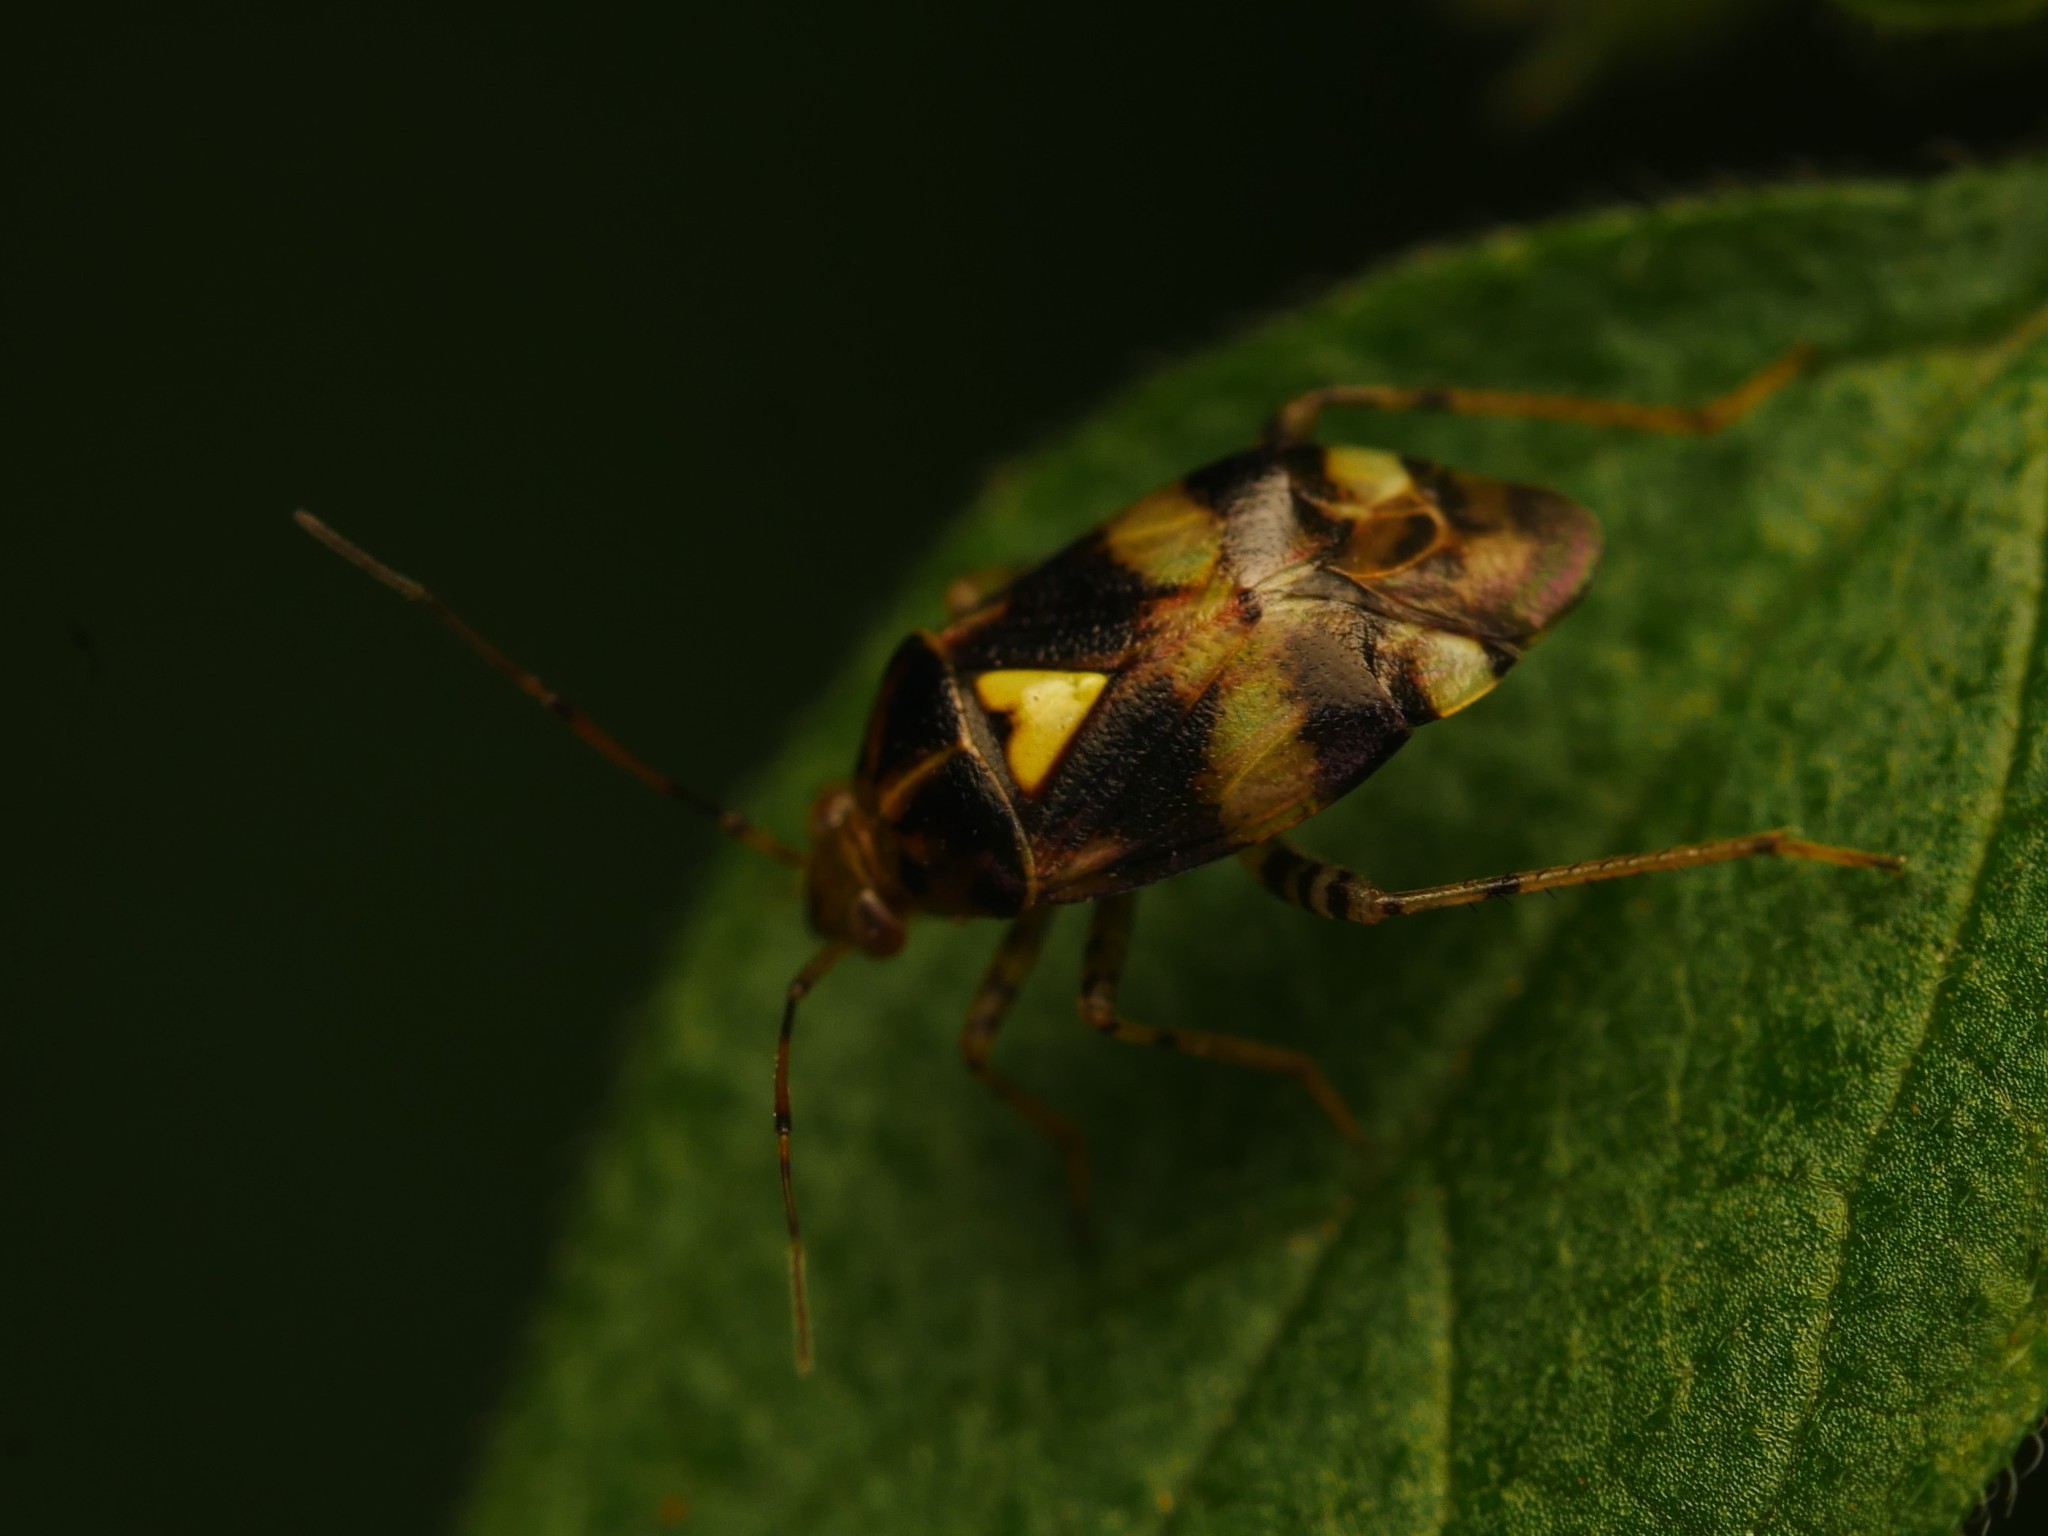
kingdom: Animalia
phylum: Arthropoda
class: Insecta
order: Hemiptera
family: Miridae
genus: Liocoris
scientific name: Liocoris tripustulatus
